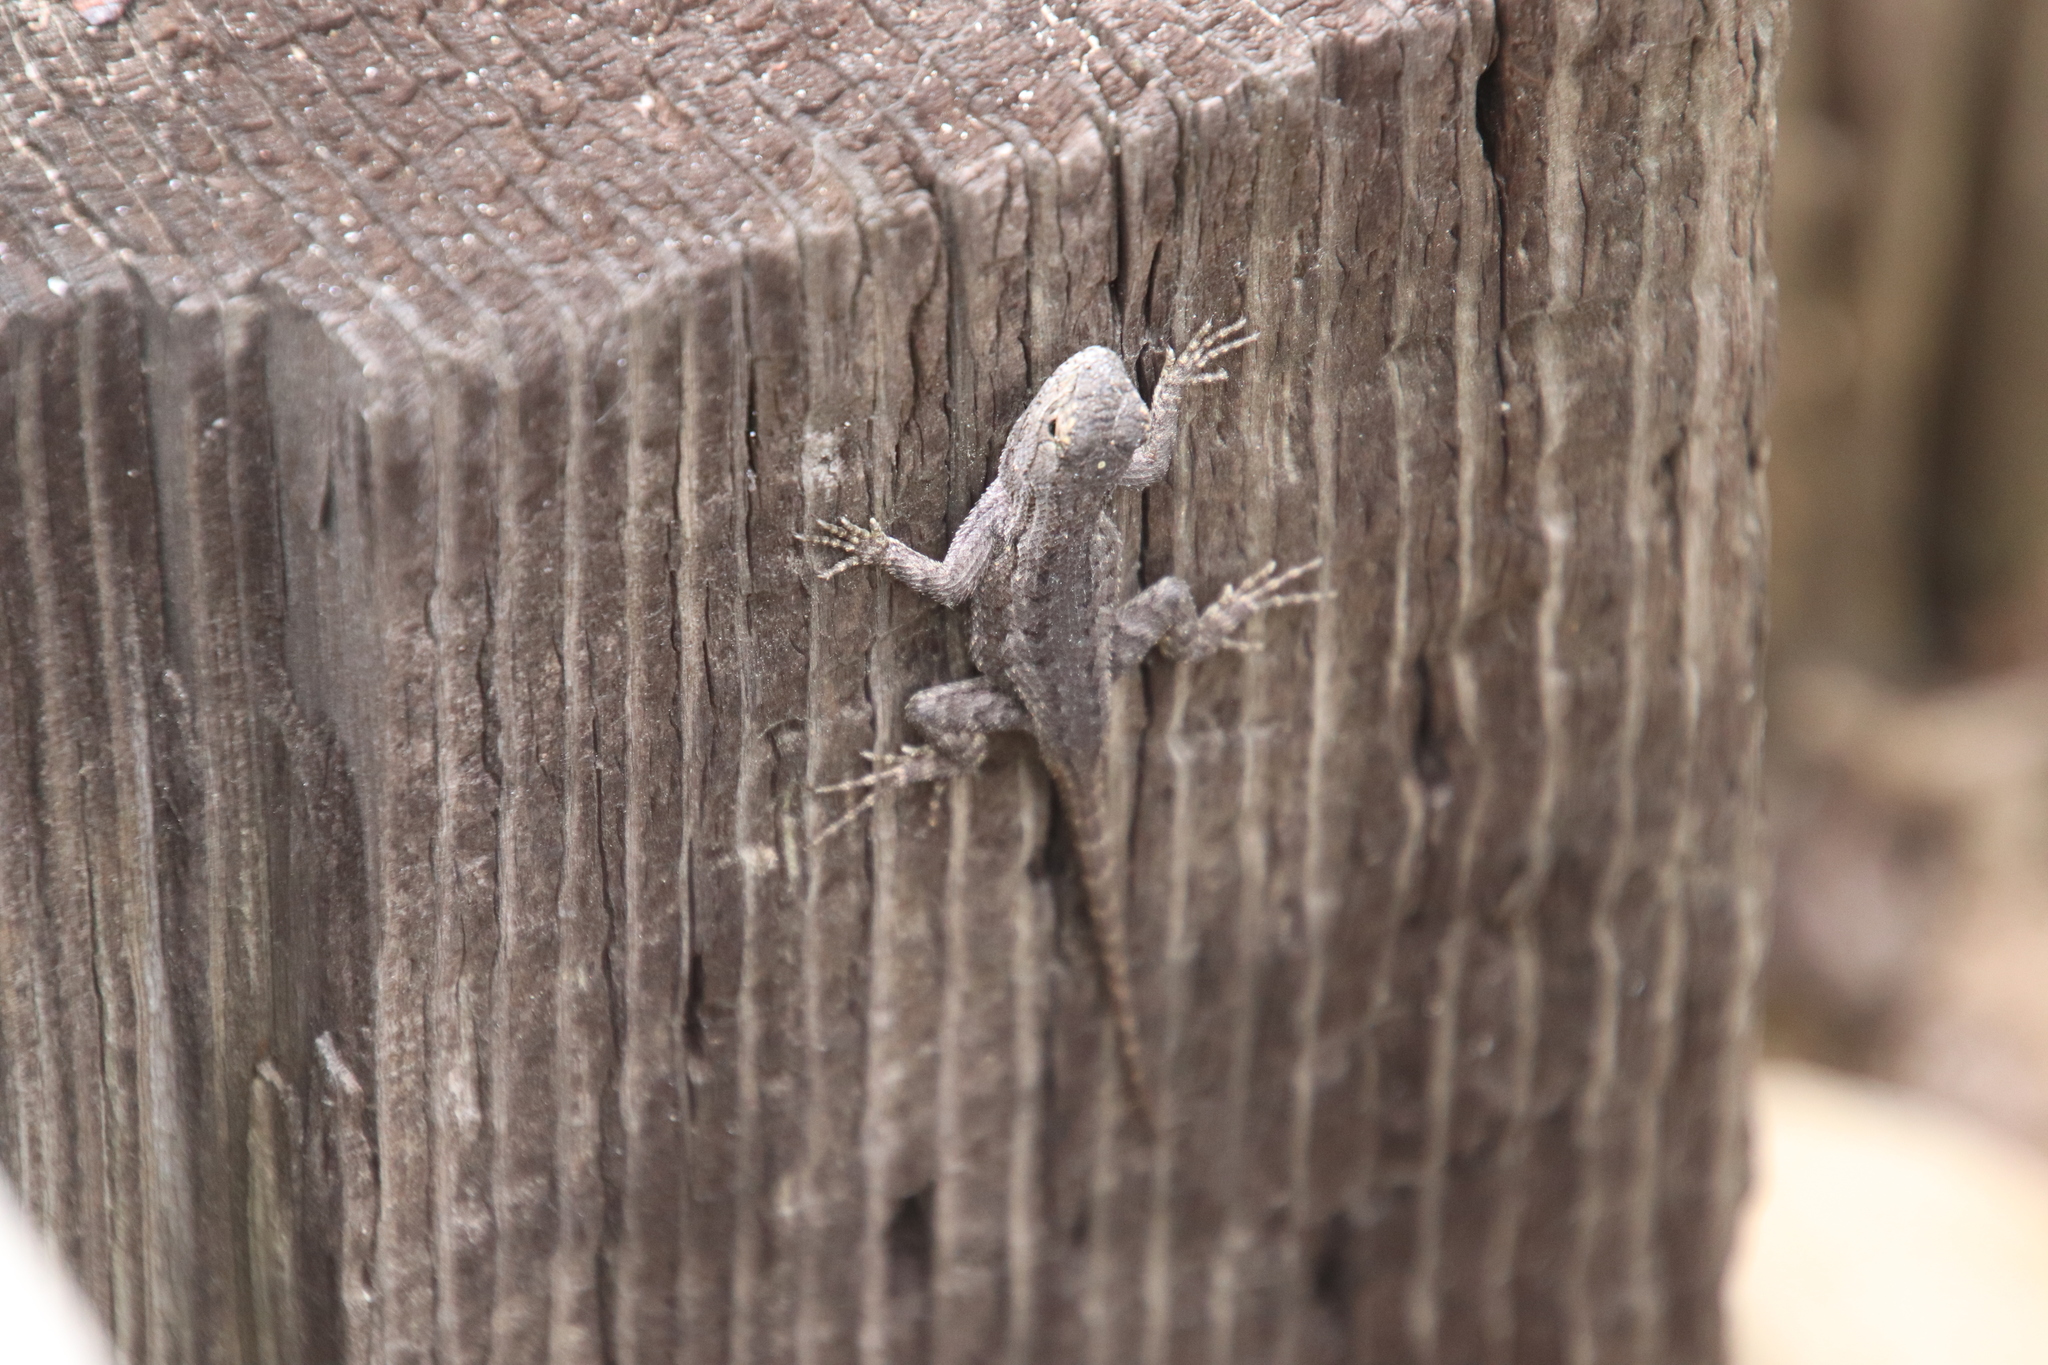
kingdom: Animalia
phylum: Chordata
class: Squamata
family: Phrynosomatidae
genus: Sceloporus
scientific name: Sceloporus occidentalis
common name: Western fence lizard
